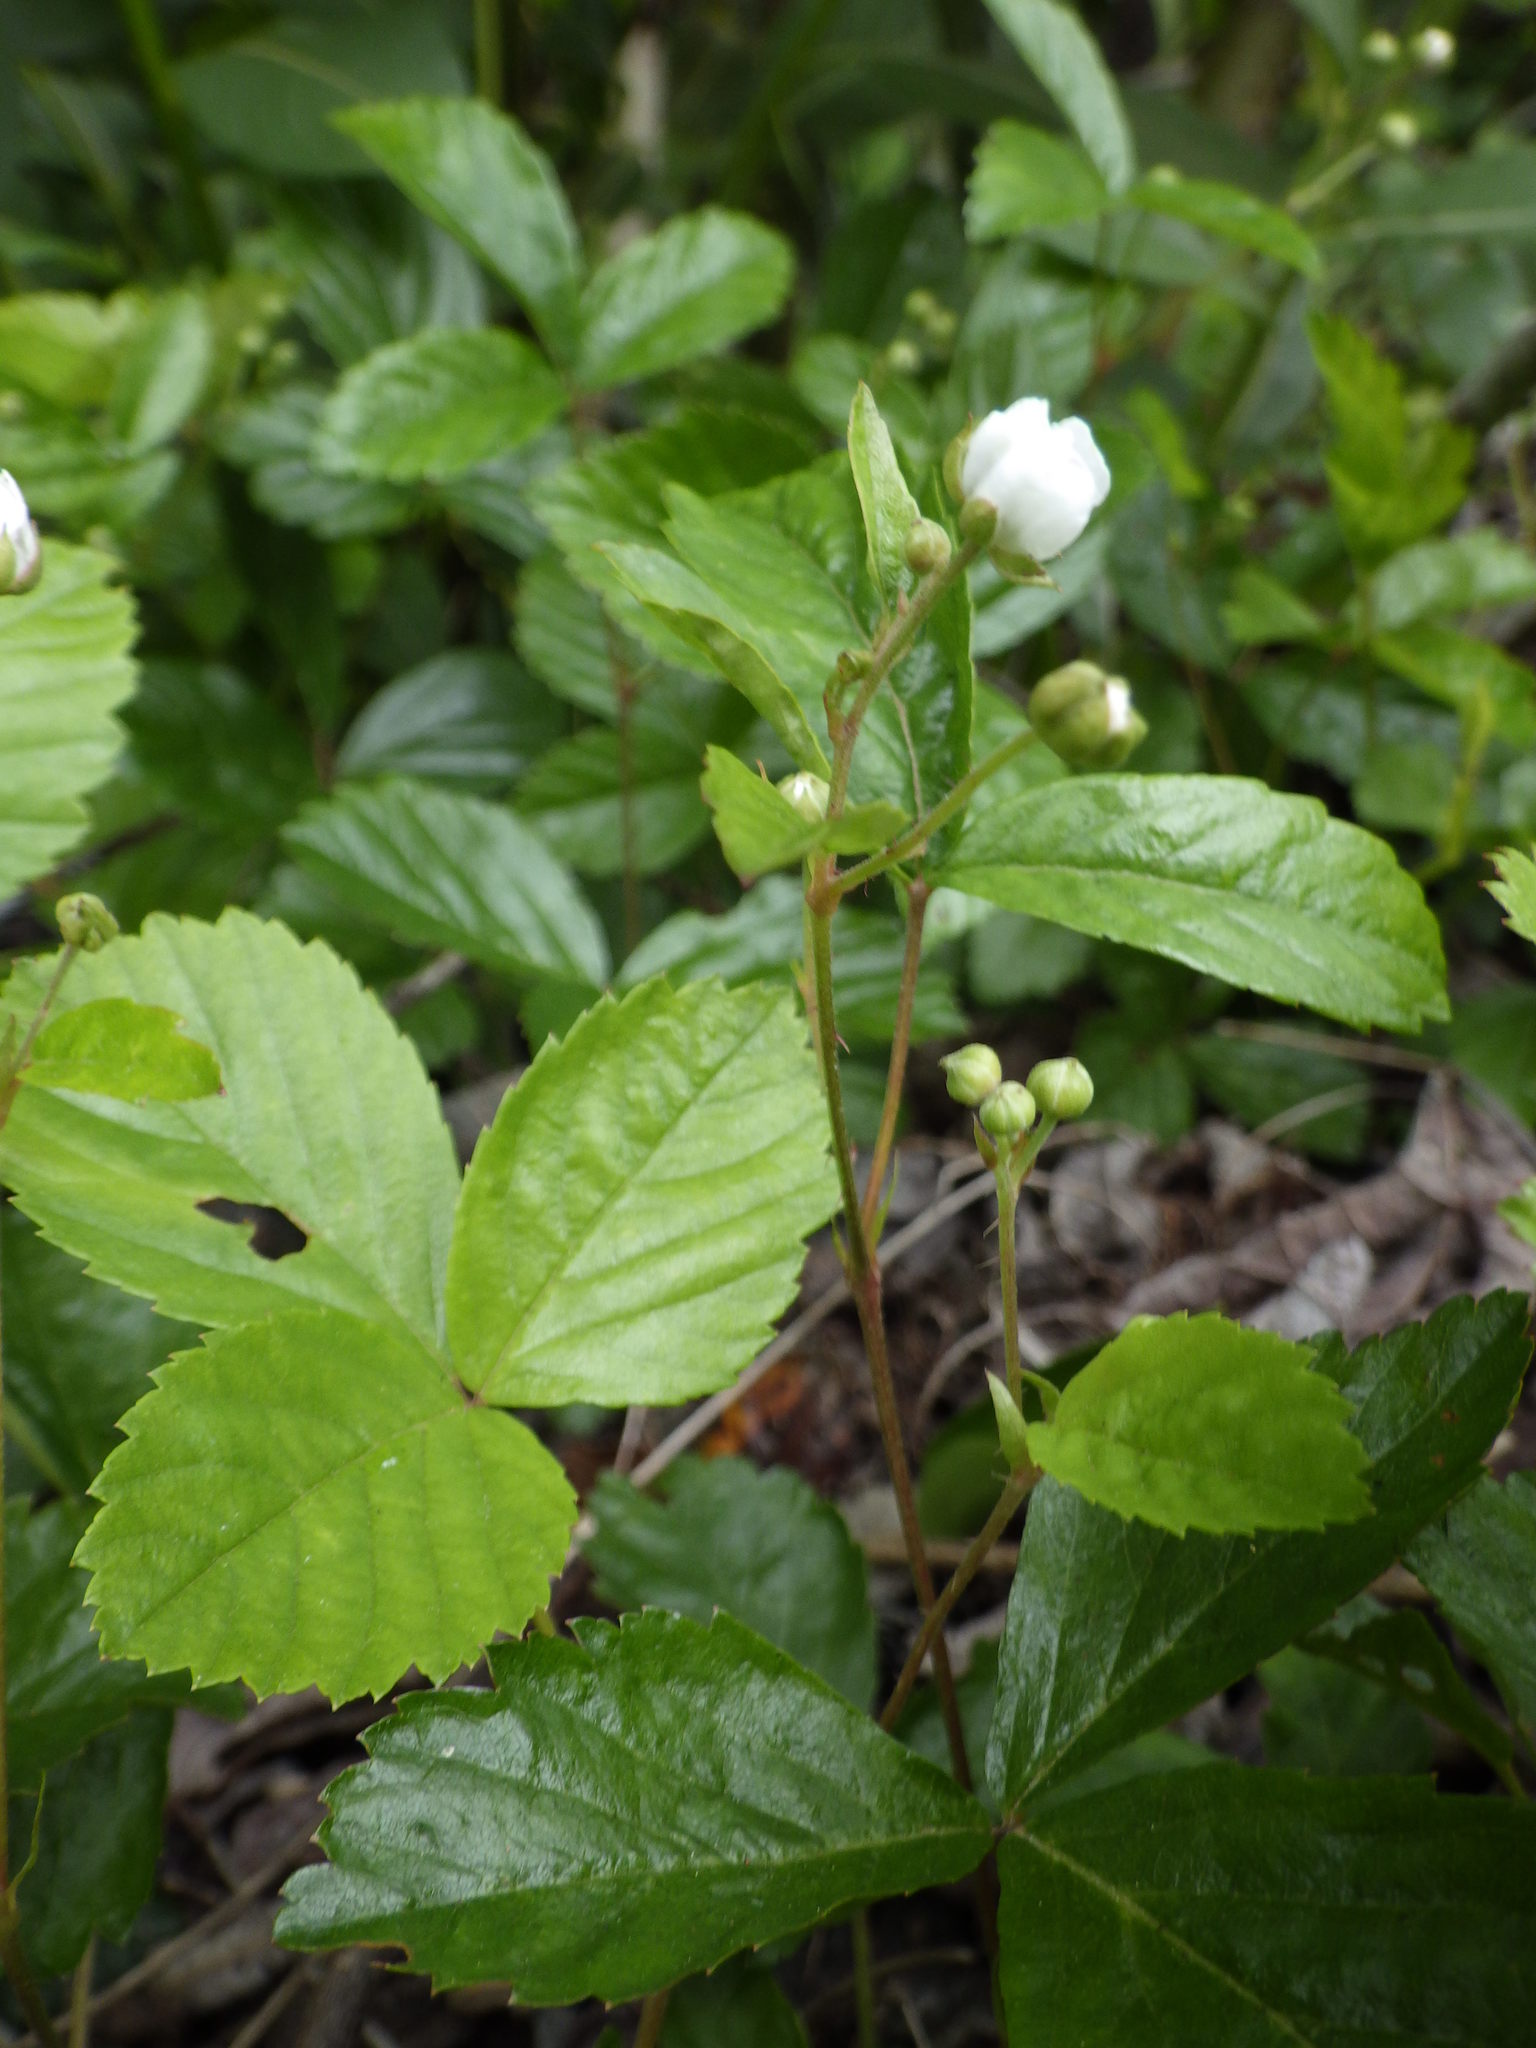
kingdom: Plantae
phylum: Tracheophyta
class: Magnoliopsida
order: Rosales
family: Rosaceae
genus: Rubus
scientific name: Rubus hispidus
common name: Running blackberry
